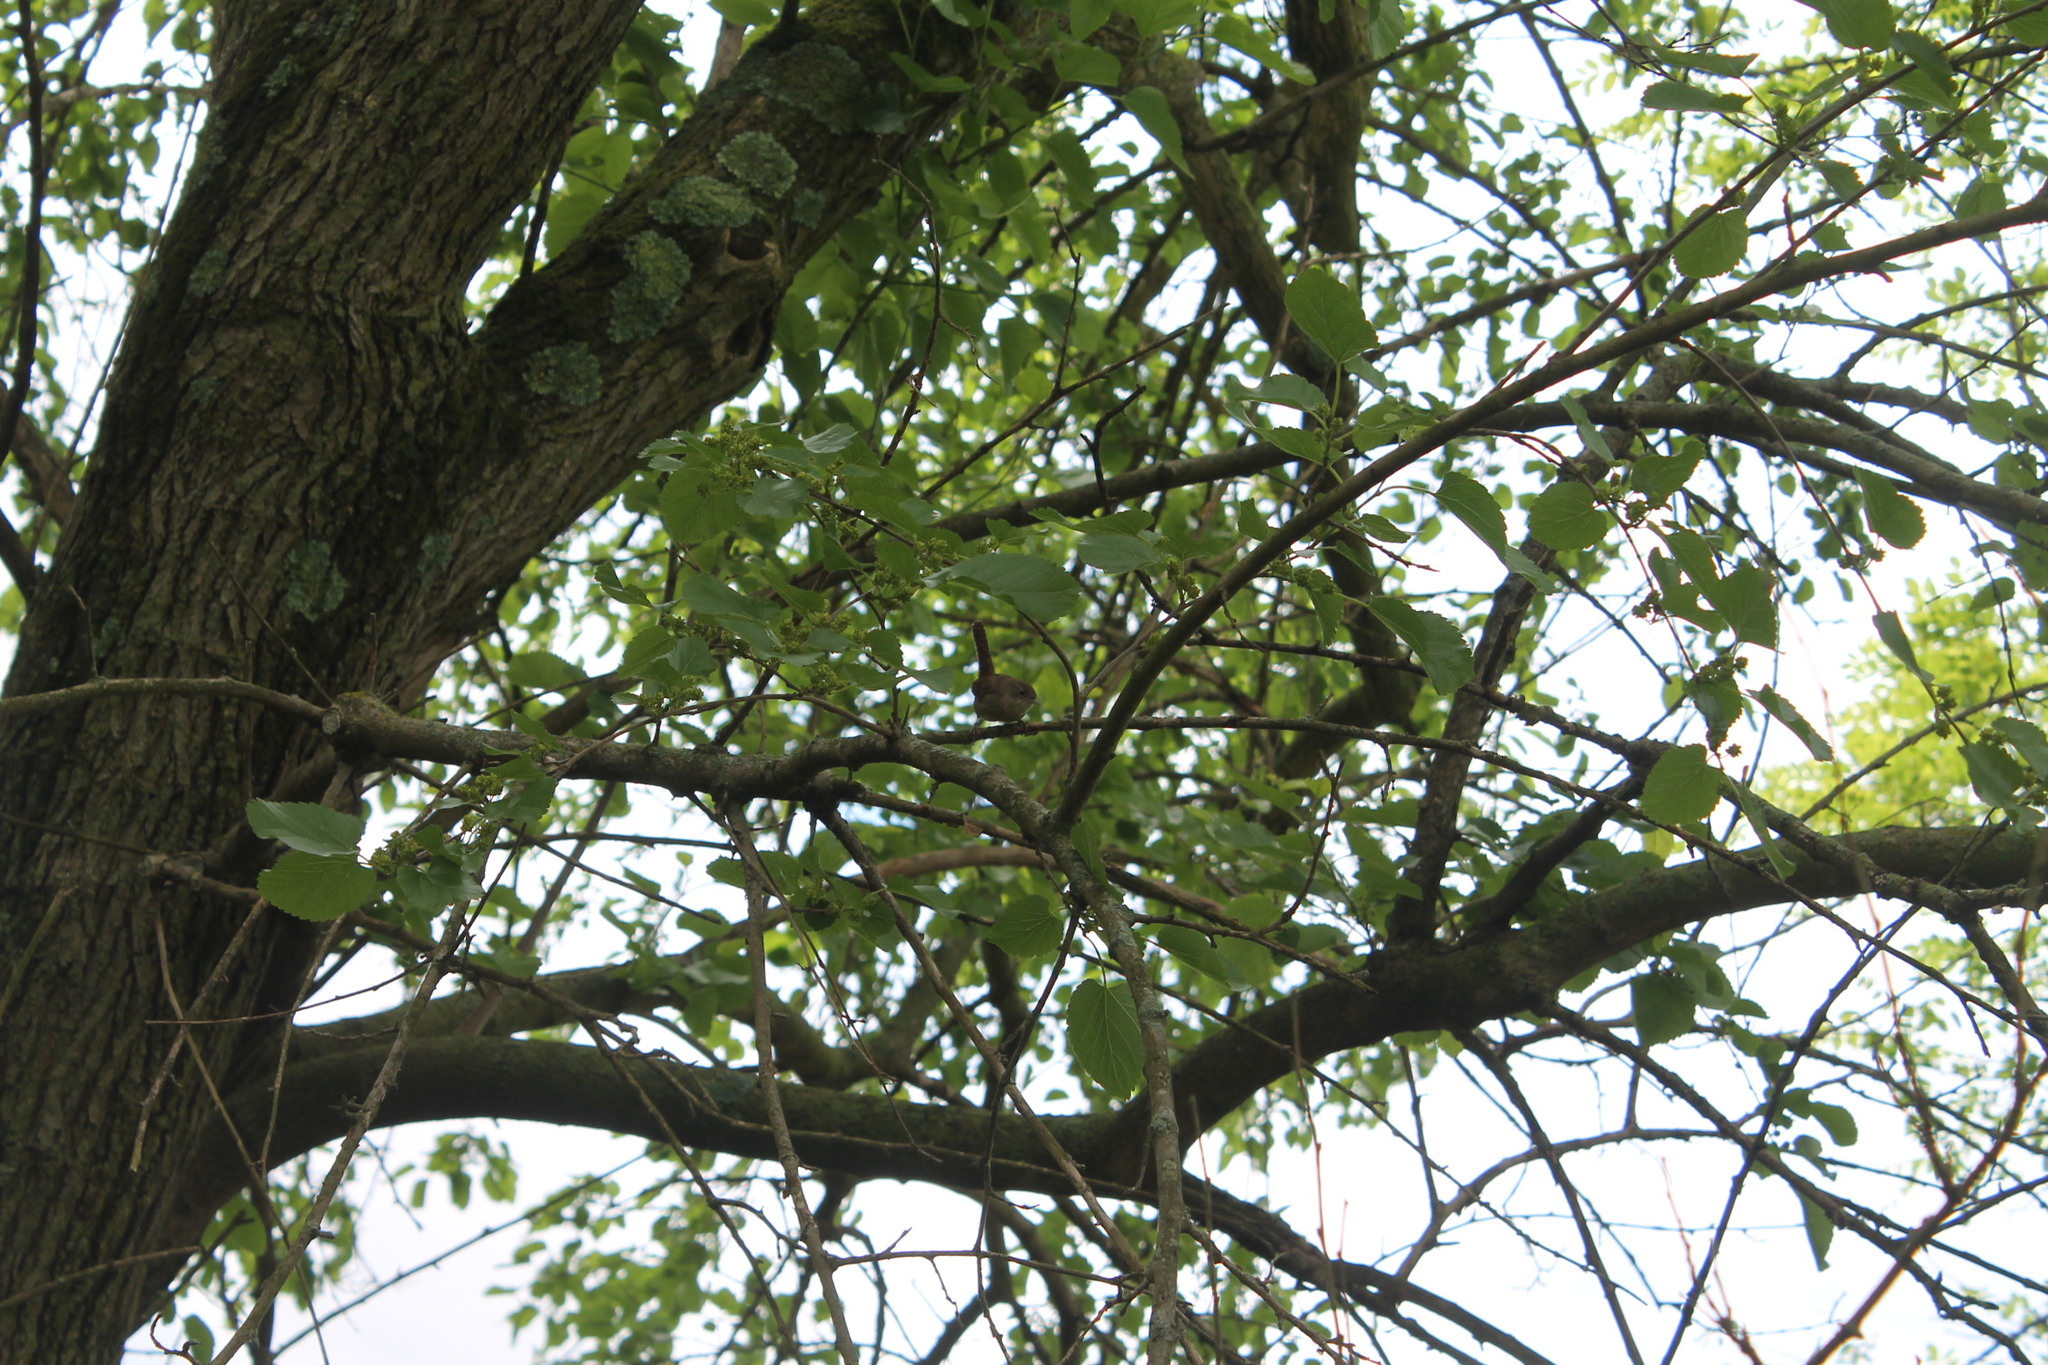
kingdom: Animalia
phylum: Chordata
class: Aves
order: Passeriformes
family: Troglodytidae
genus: Troglodytes
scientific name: Troglodytes aedon
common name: House wren
